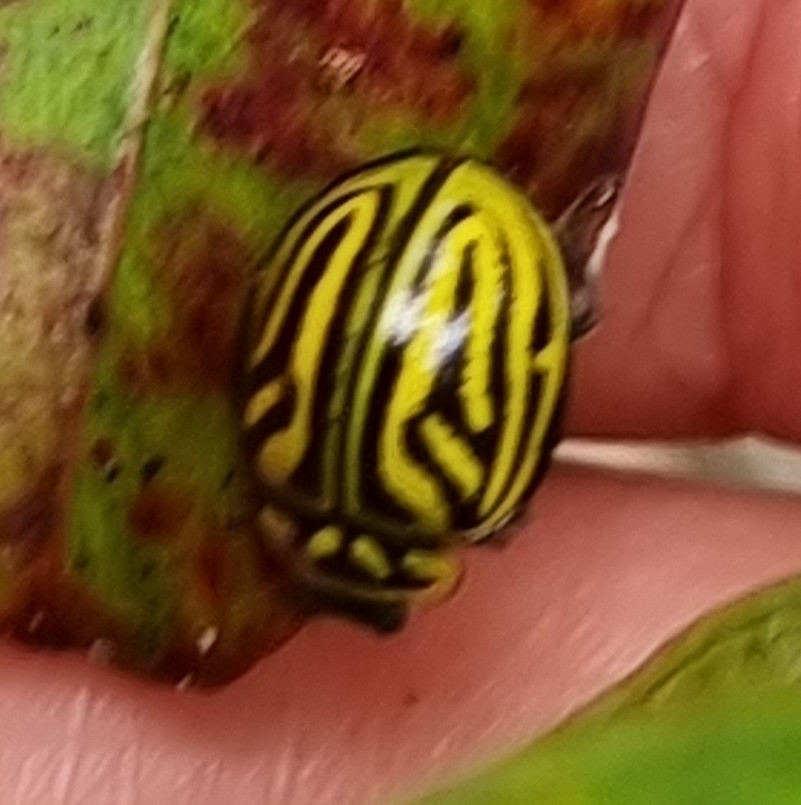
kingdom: Animalia
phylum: Arthropoda
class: Insecta
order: Coleoptera
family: Coccinellidae
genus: Archegleis
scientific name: Archegleis
